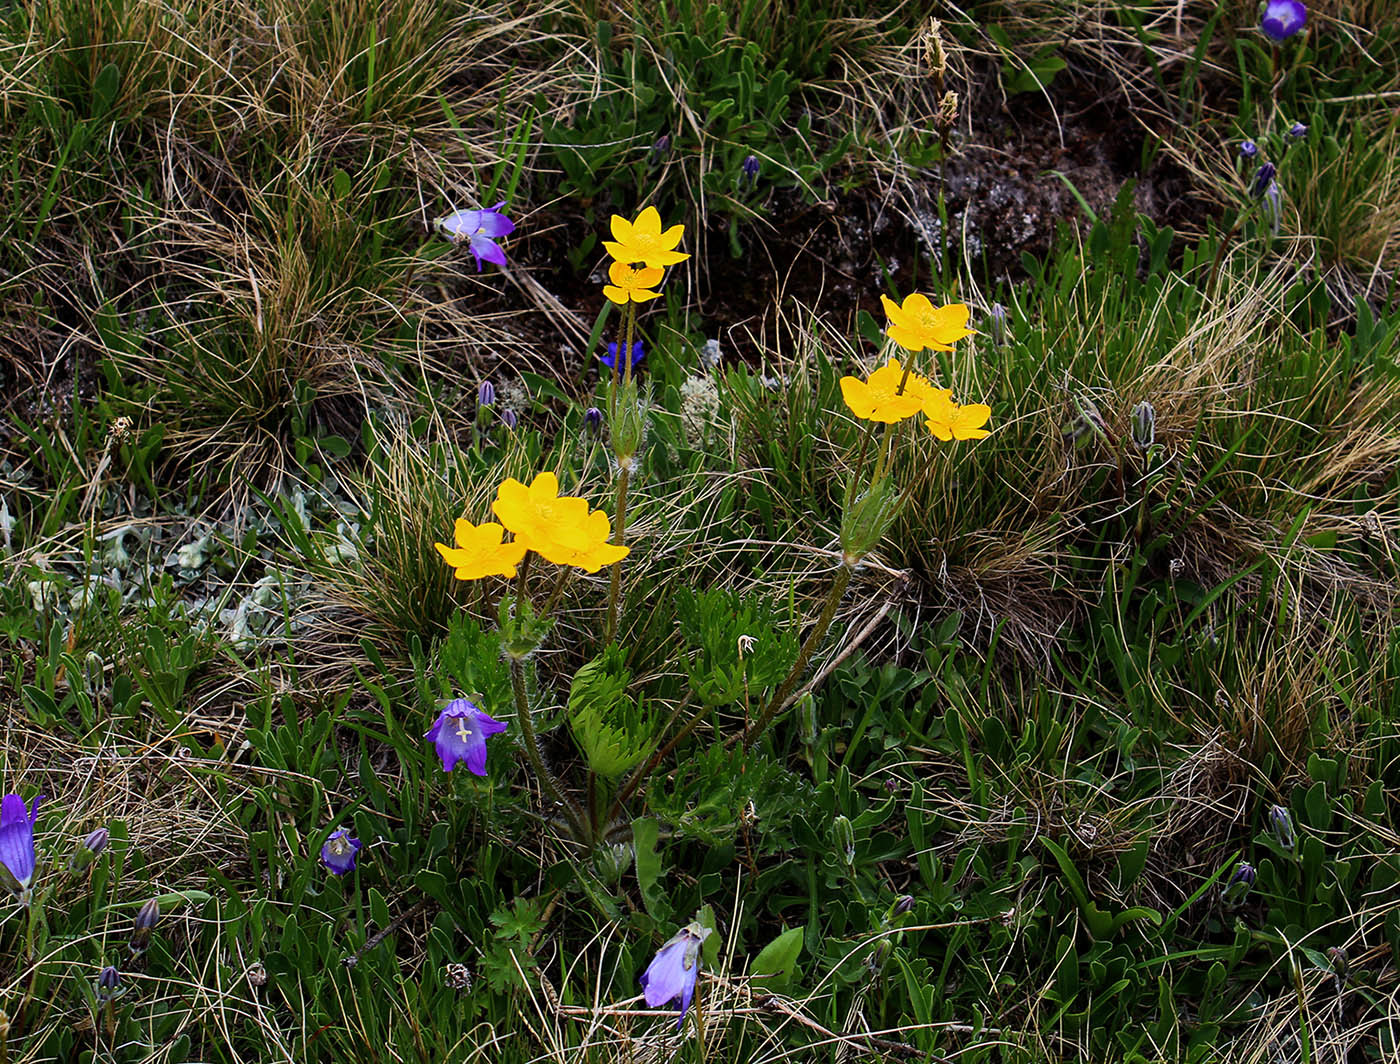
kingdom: Plantae
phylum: Tracheophyta
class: Magnoliopsida
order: Ranunculales
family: Ranunculaceae
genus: Anemonastrum
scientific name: Anemonastrum narcissiflorum
